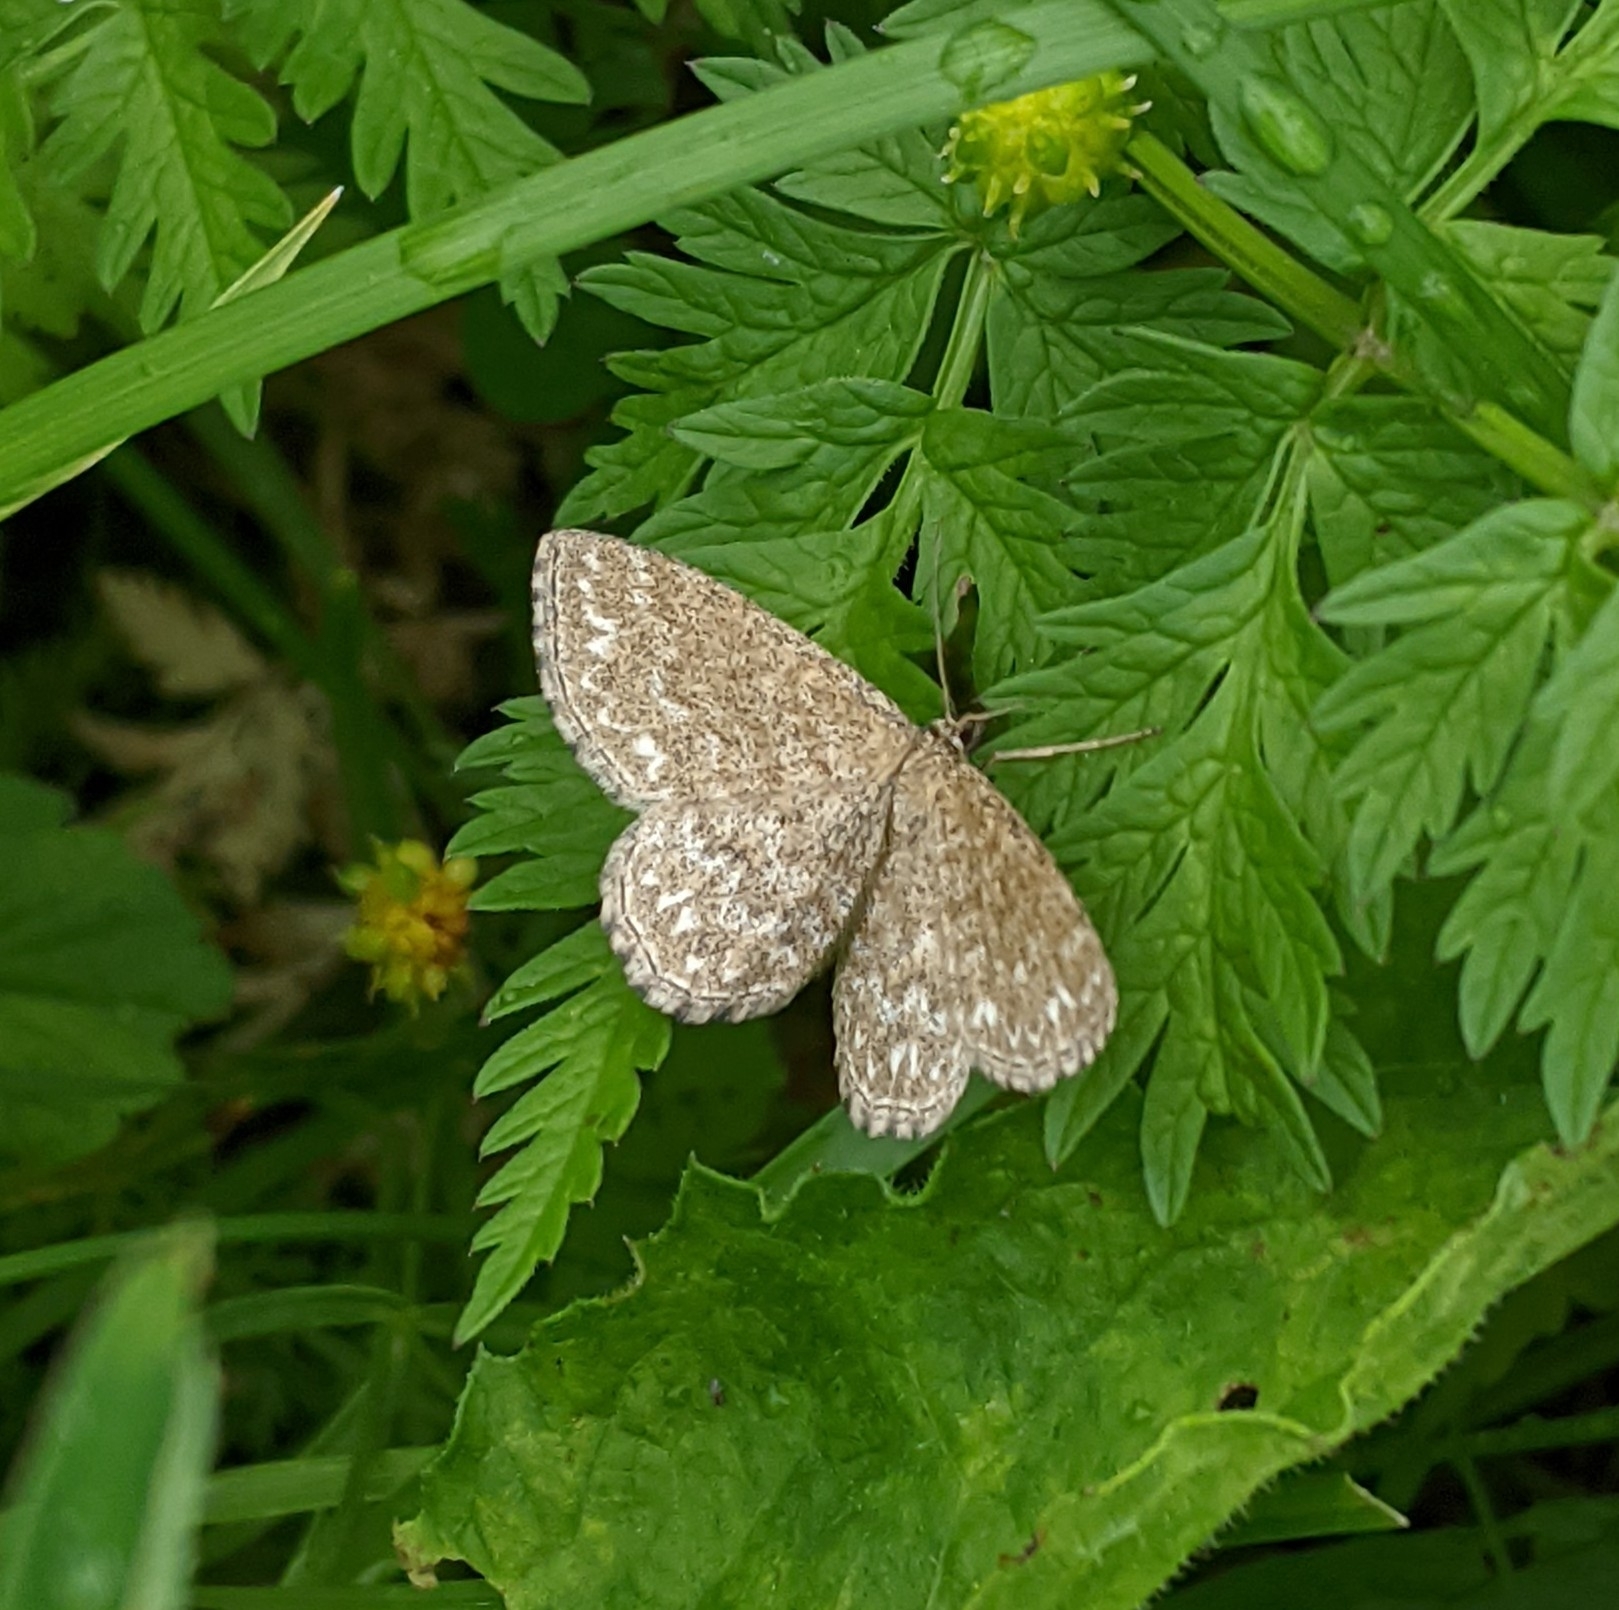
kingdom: Animalia
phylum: Arthropoda
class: Insecta
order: Lepidoptera
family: Geometridae
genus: Scopula
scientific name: Scopula immorata
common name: Lewes wave
